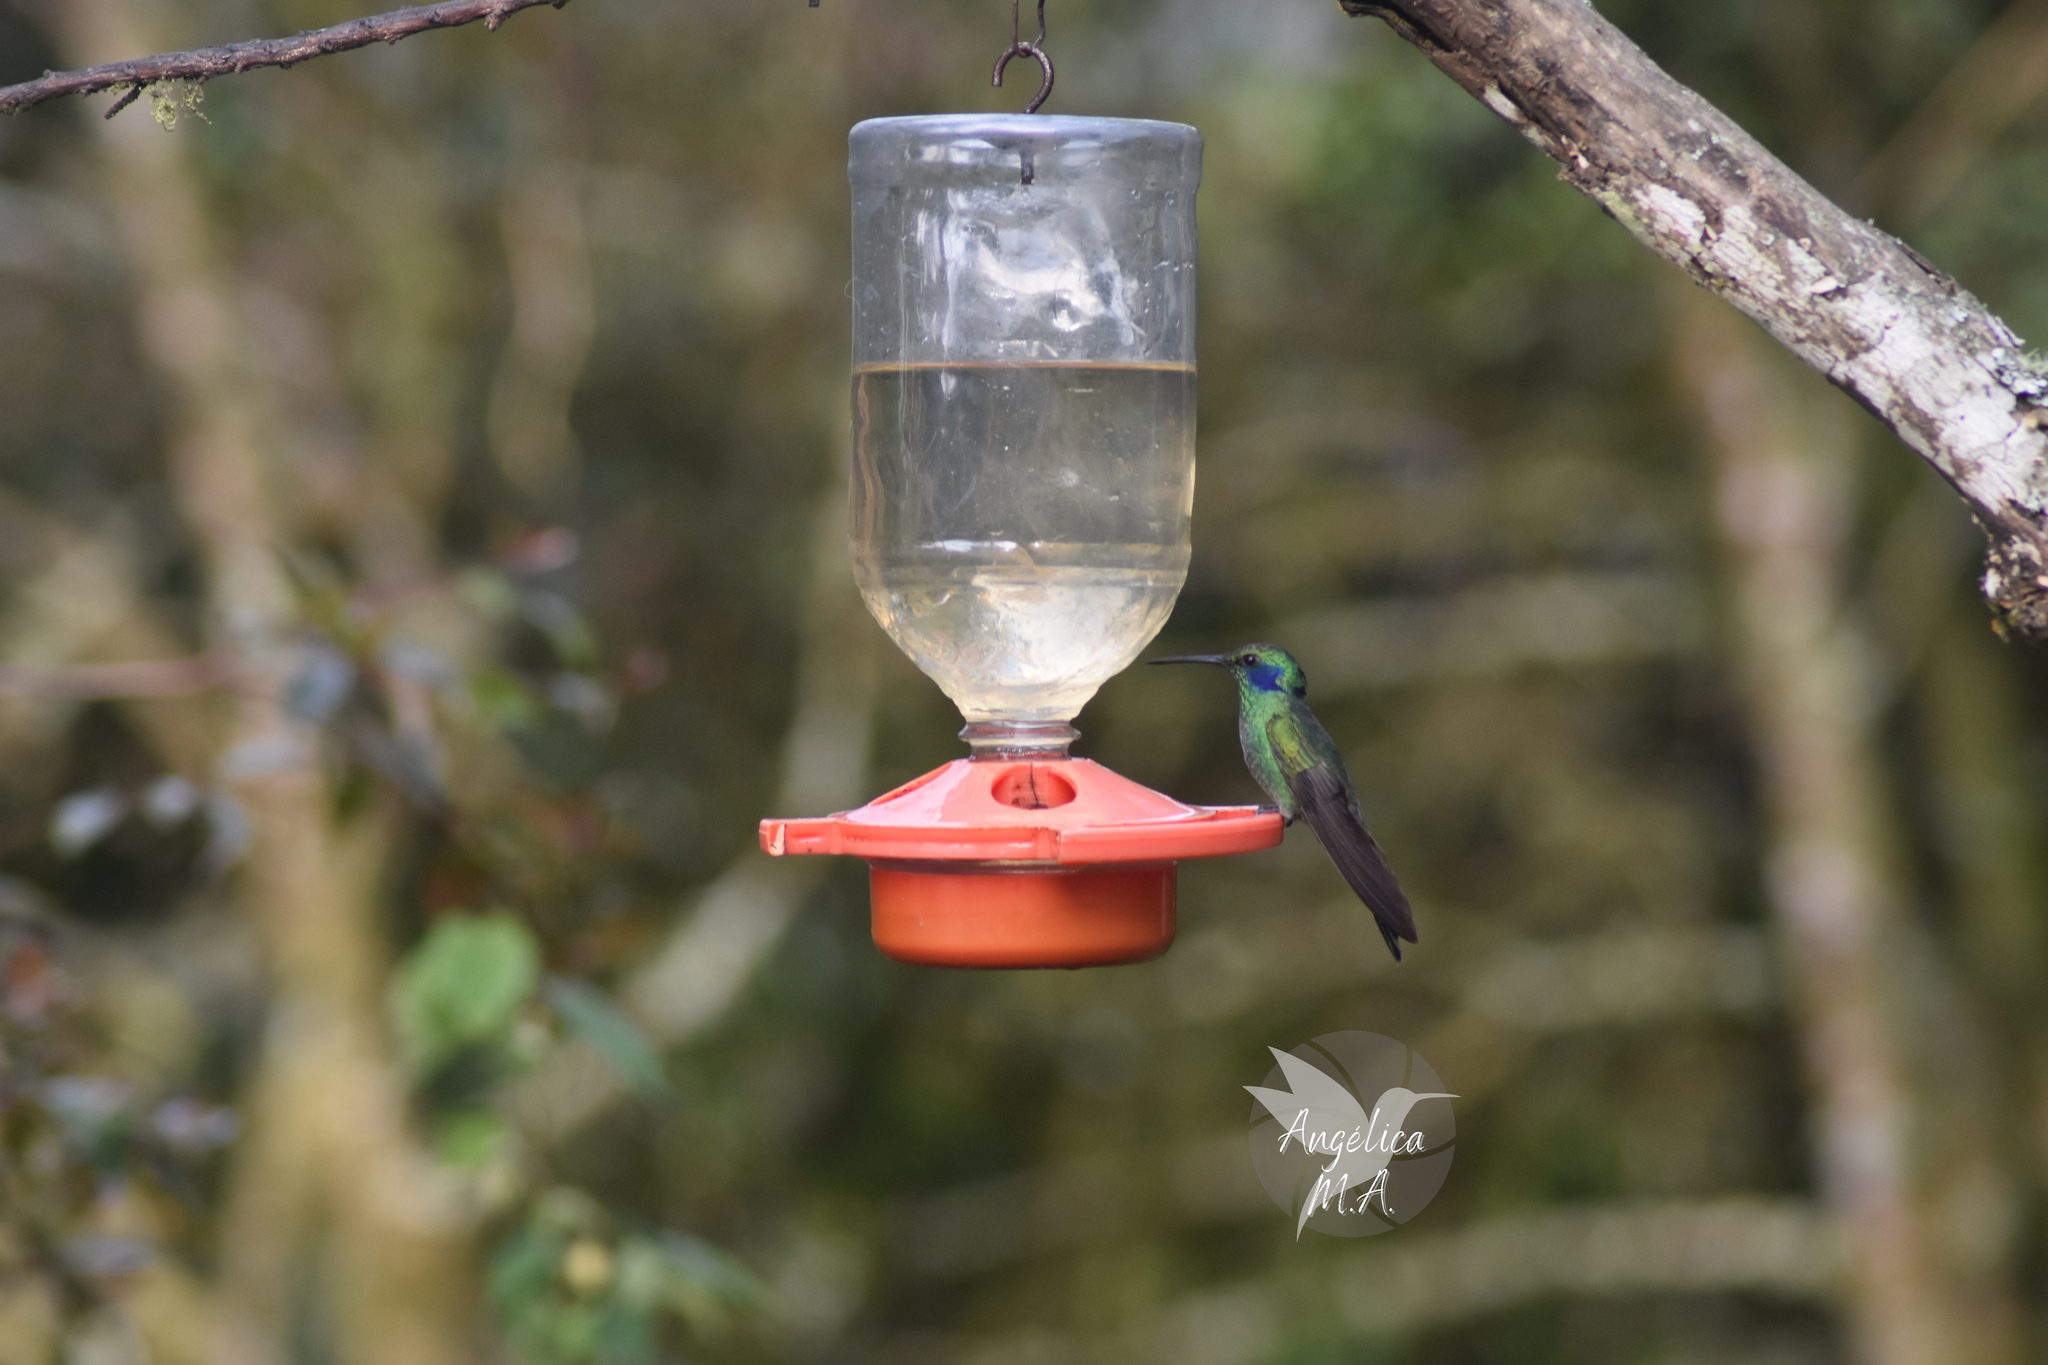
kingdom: Animalia
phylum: Chordata
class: Aves
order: Apodiformes
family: Trochilidae
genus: Colibri
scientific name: Colibri cyanotus
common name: Lesser violetear
